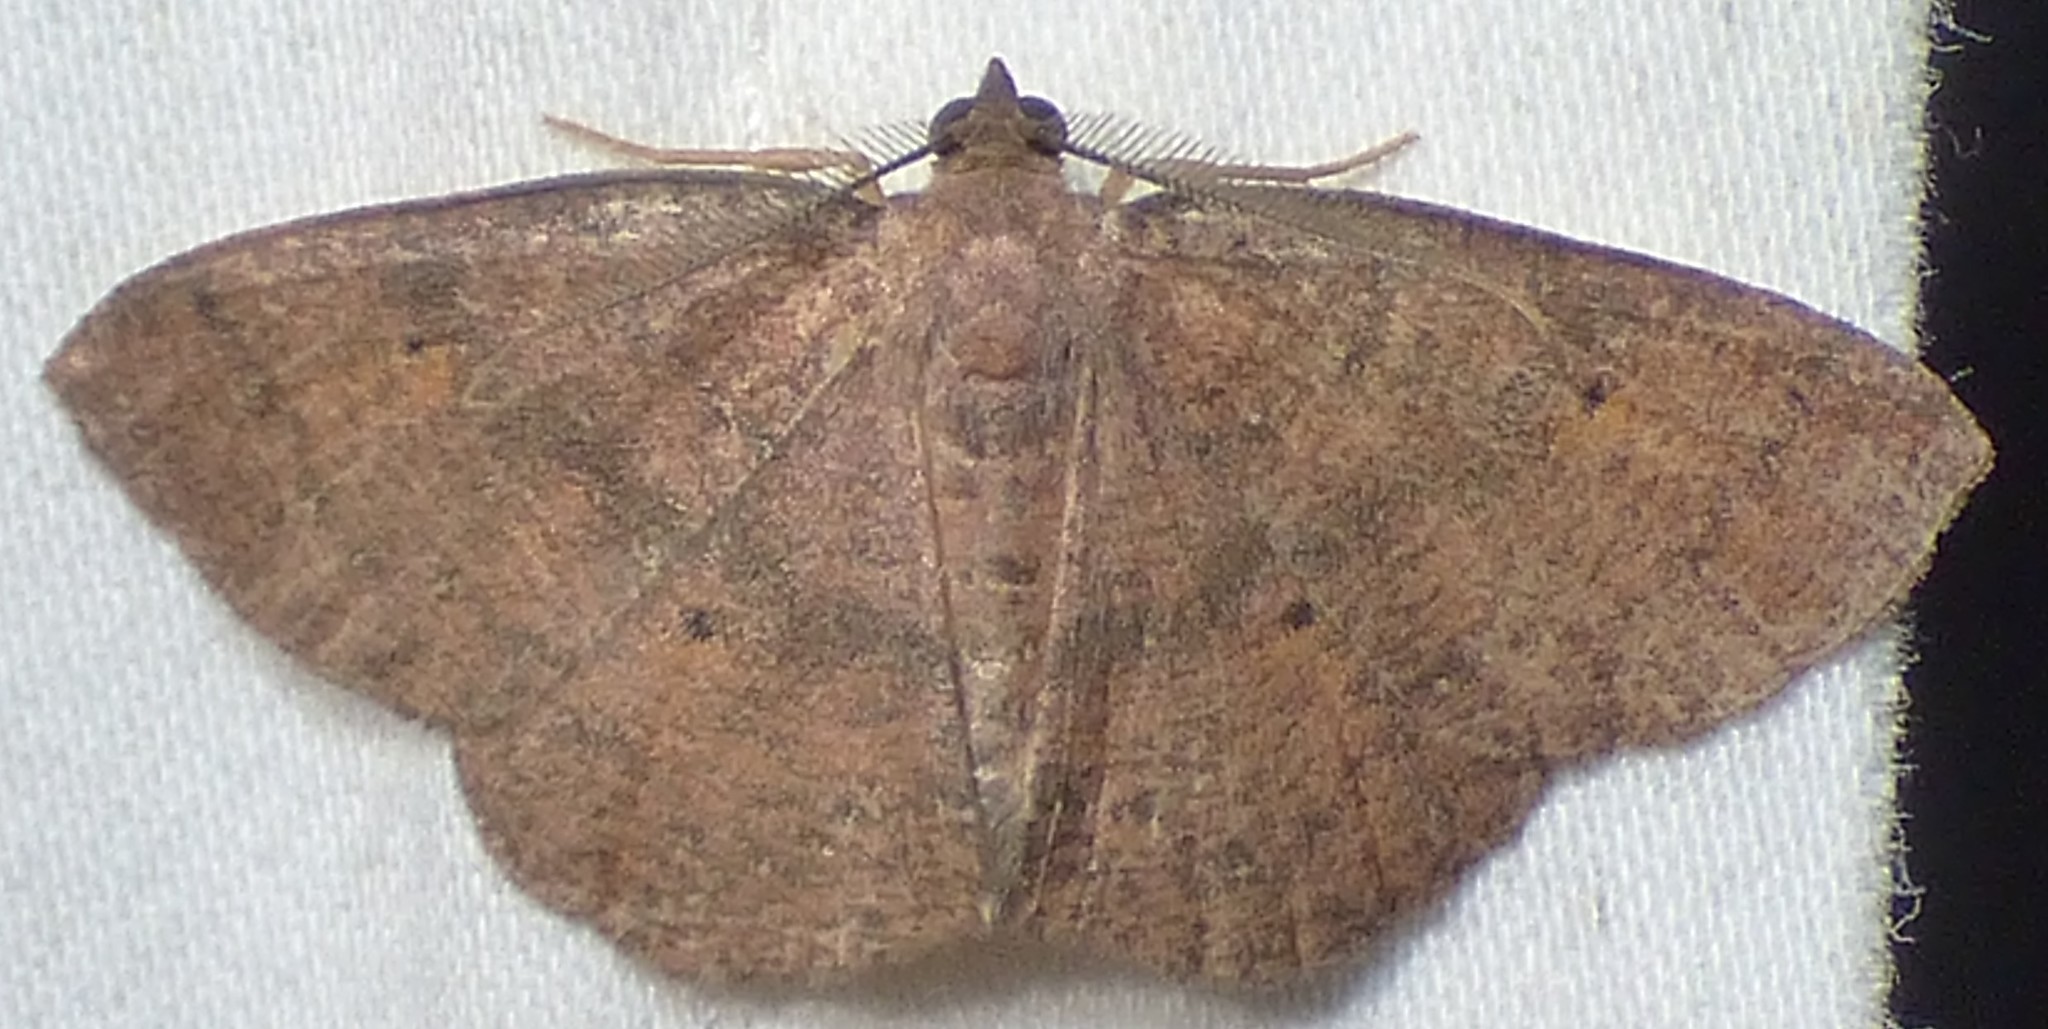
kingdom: Animalia
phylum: Arthropoda
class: Insecta
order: Lepidoptera
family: Geometridae
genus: Ilexia
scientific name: Ilexia intractata
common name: Black-dotted ruddy moth
